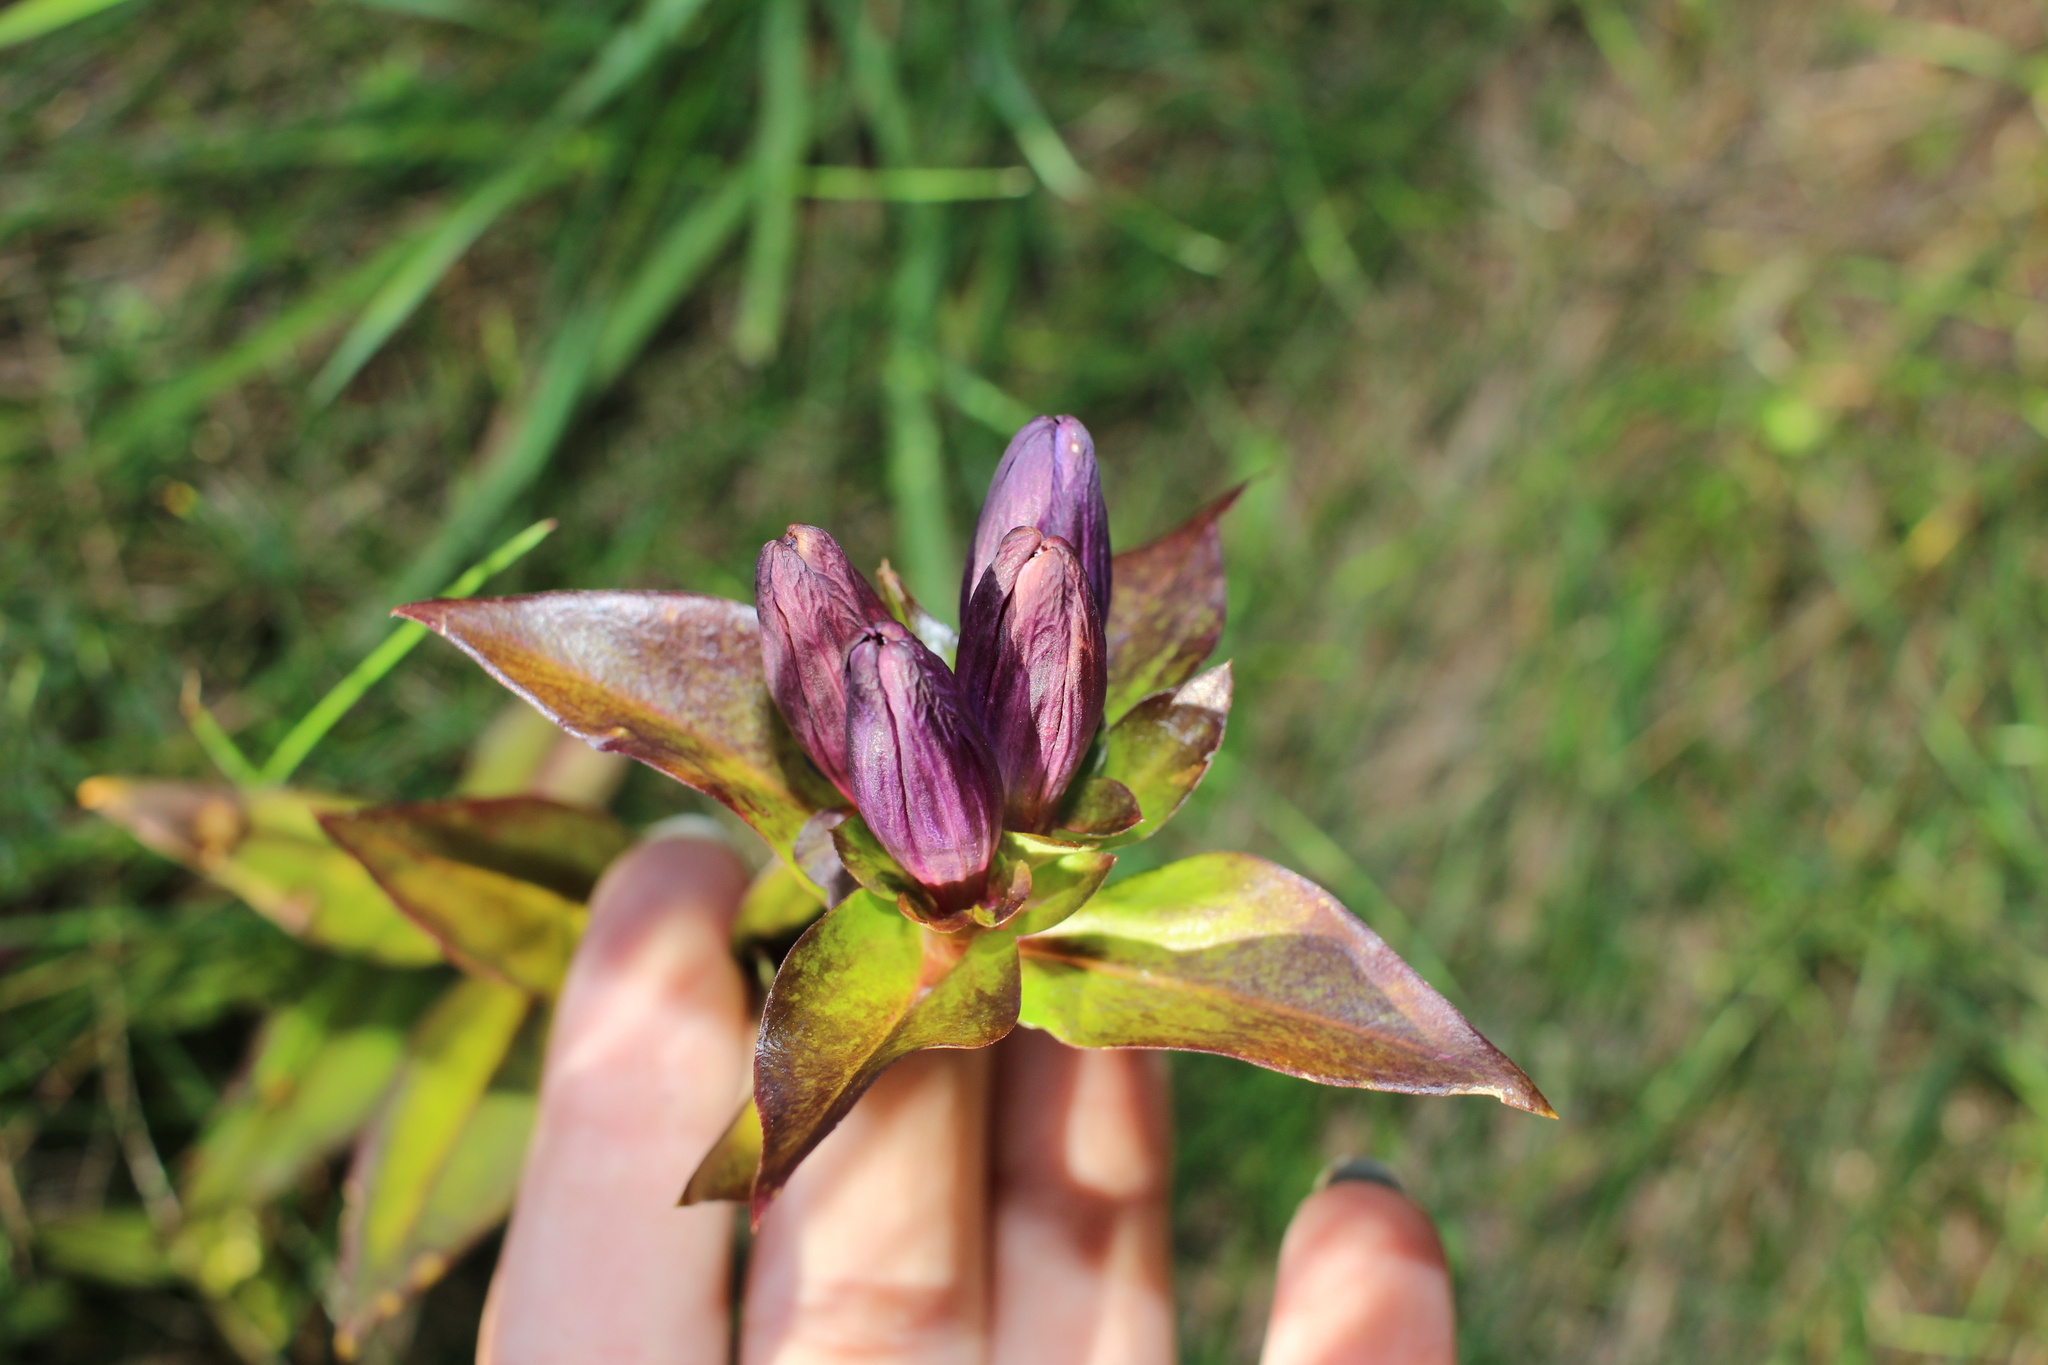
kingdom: Plantae
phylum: Tracheophyta
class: Magnoliopsida
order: Gentianales
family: Gentianaceae
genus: Gentiana
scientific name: Gentiana clausa
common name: Blind gentian
